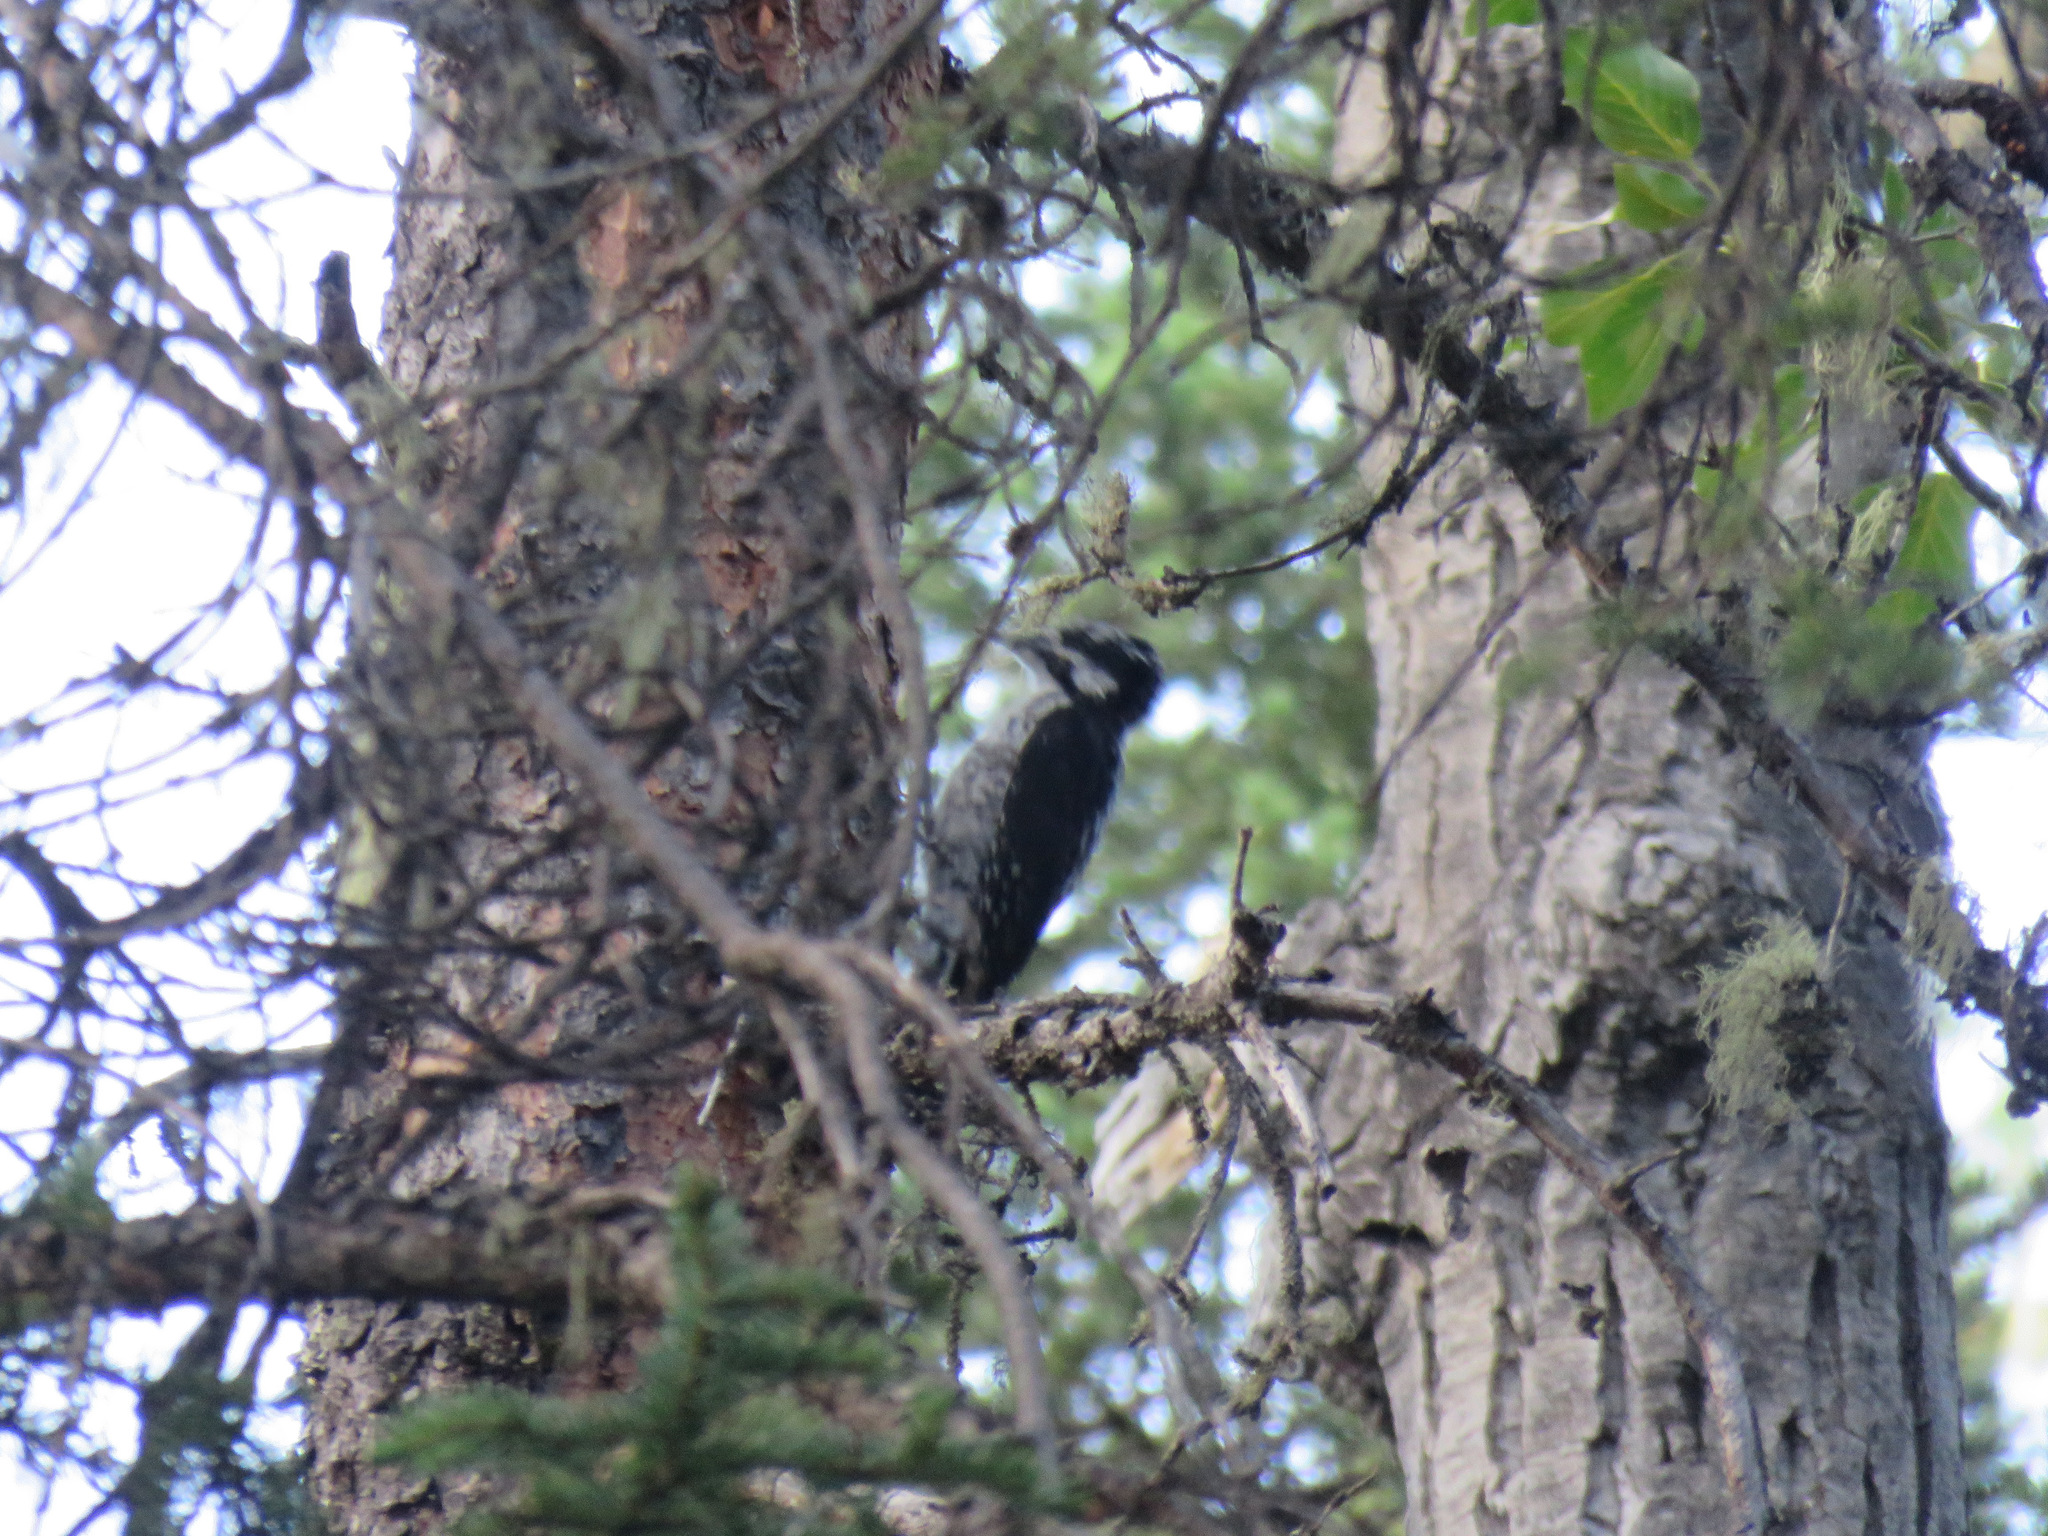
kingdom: Animalia
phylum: Chordata
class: Aves
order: Piciformes
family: Picidae
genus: Picoides
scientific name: Picoides dorsalis
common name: American three-toed woodpecker
